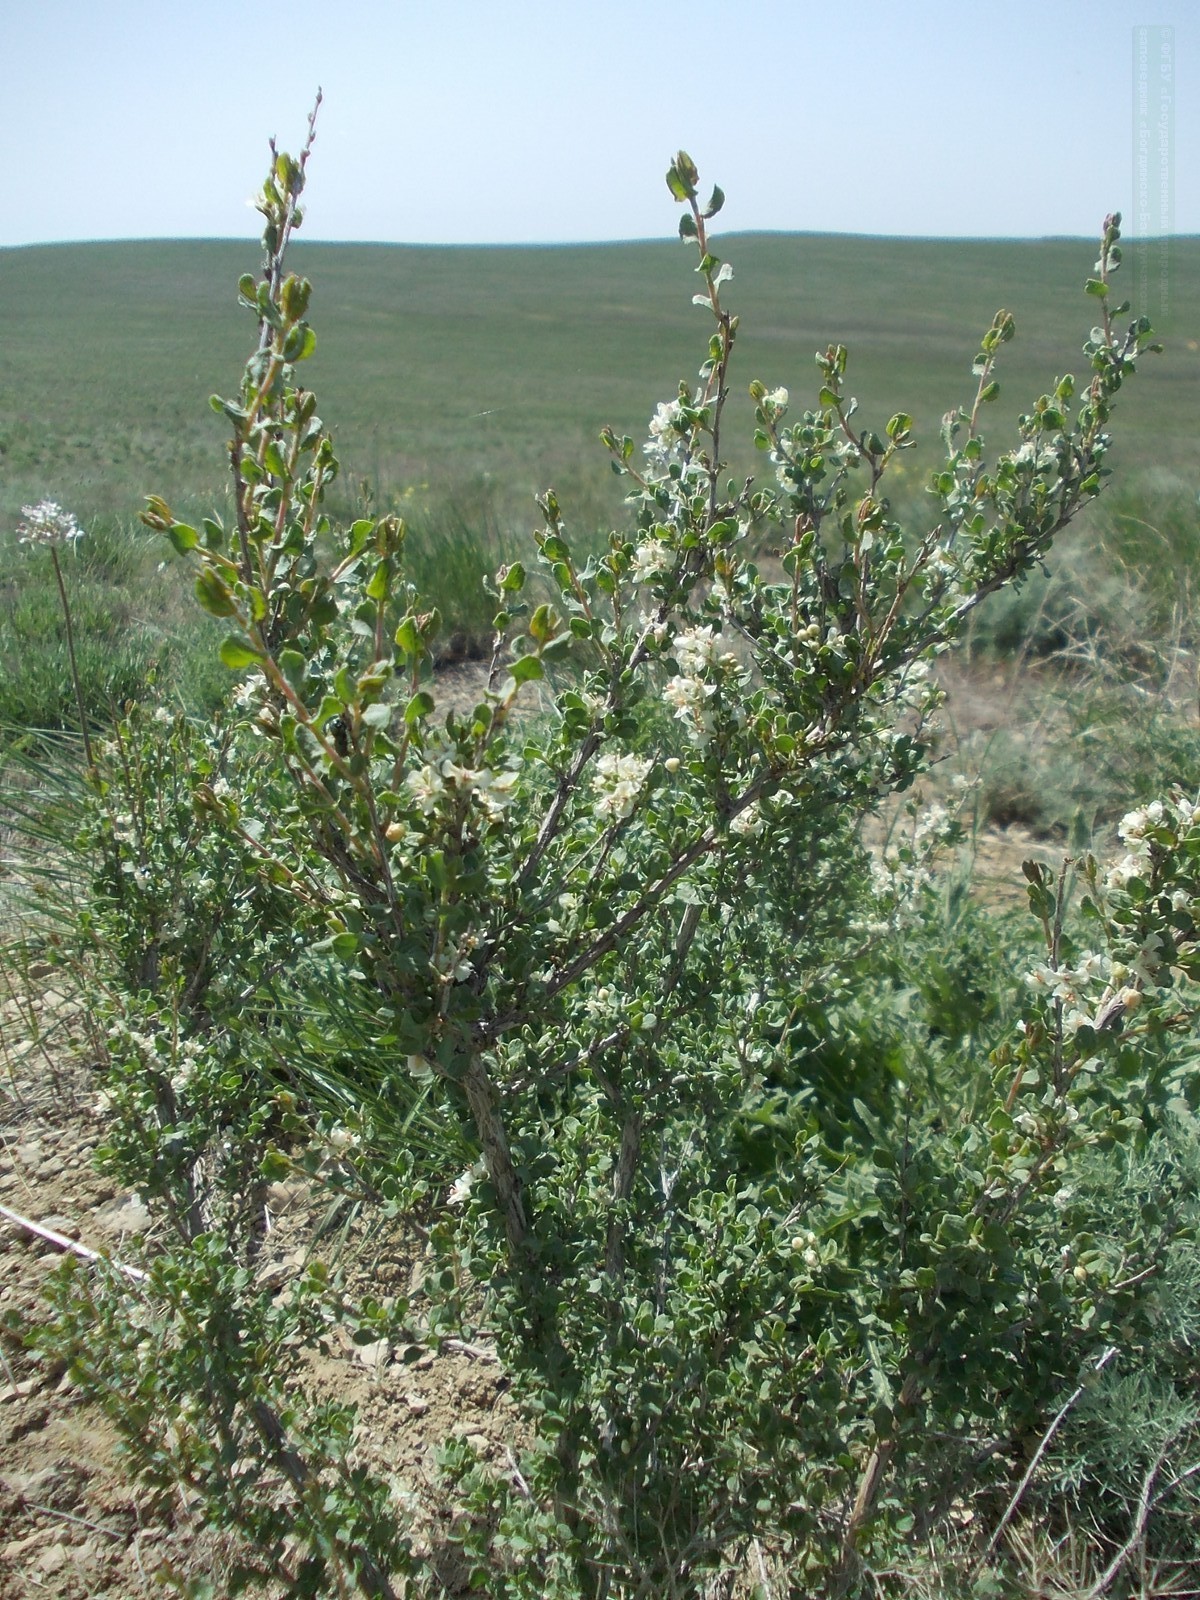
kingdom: Plantae
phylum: Tracheophyta
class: Magnoliopsida
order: Caryophyllales
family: Polygonaceae
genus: Atraphaxis
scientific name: Atraphaxis replicata
